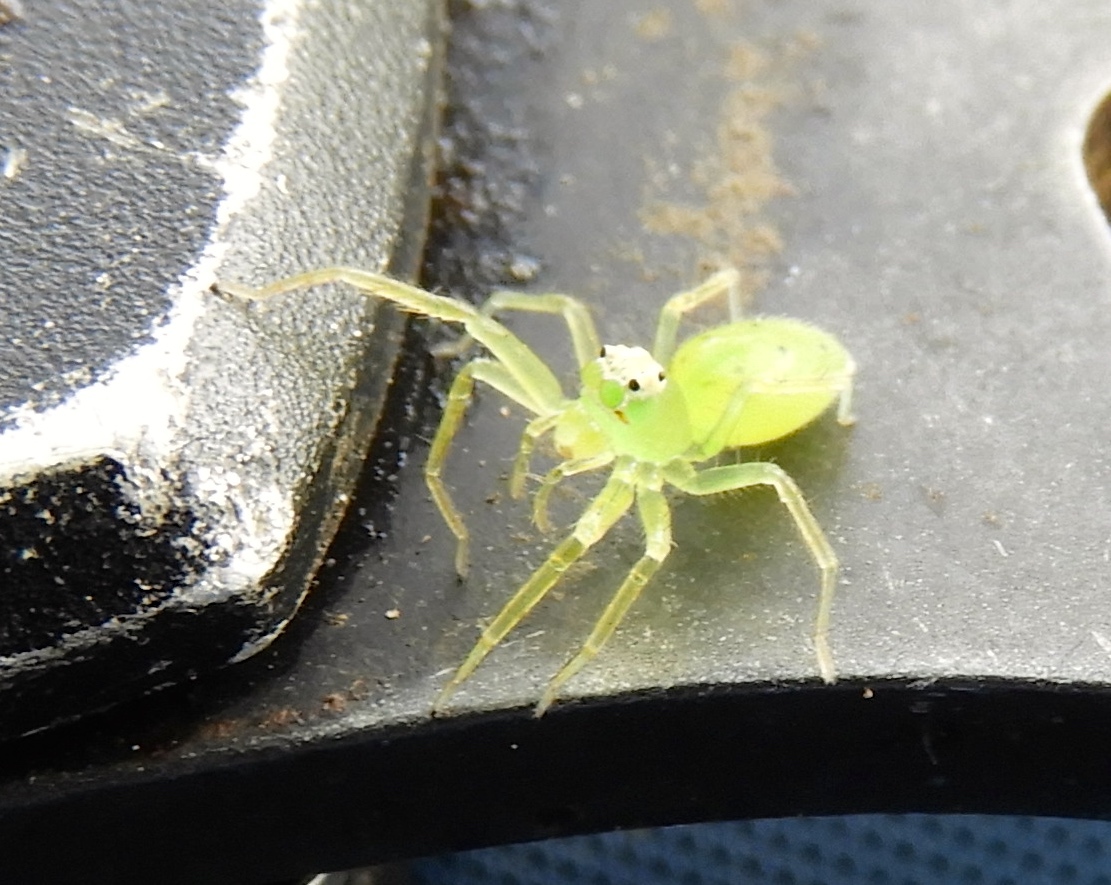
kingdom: Animalia
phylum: Arthropoda
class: Arachnida
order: Araneae
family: Salticidae
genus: Lyssomanes
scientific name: Lyssomanes
